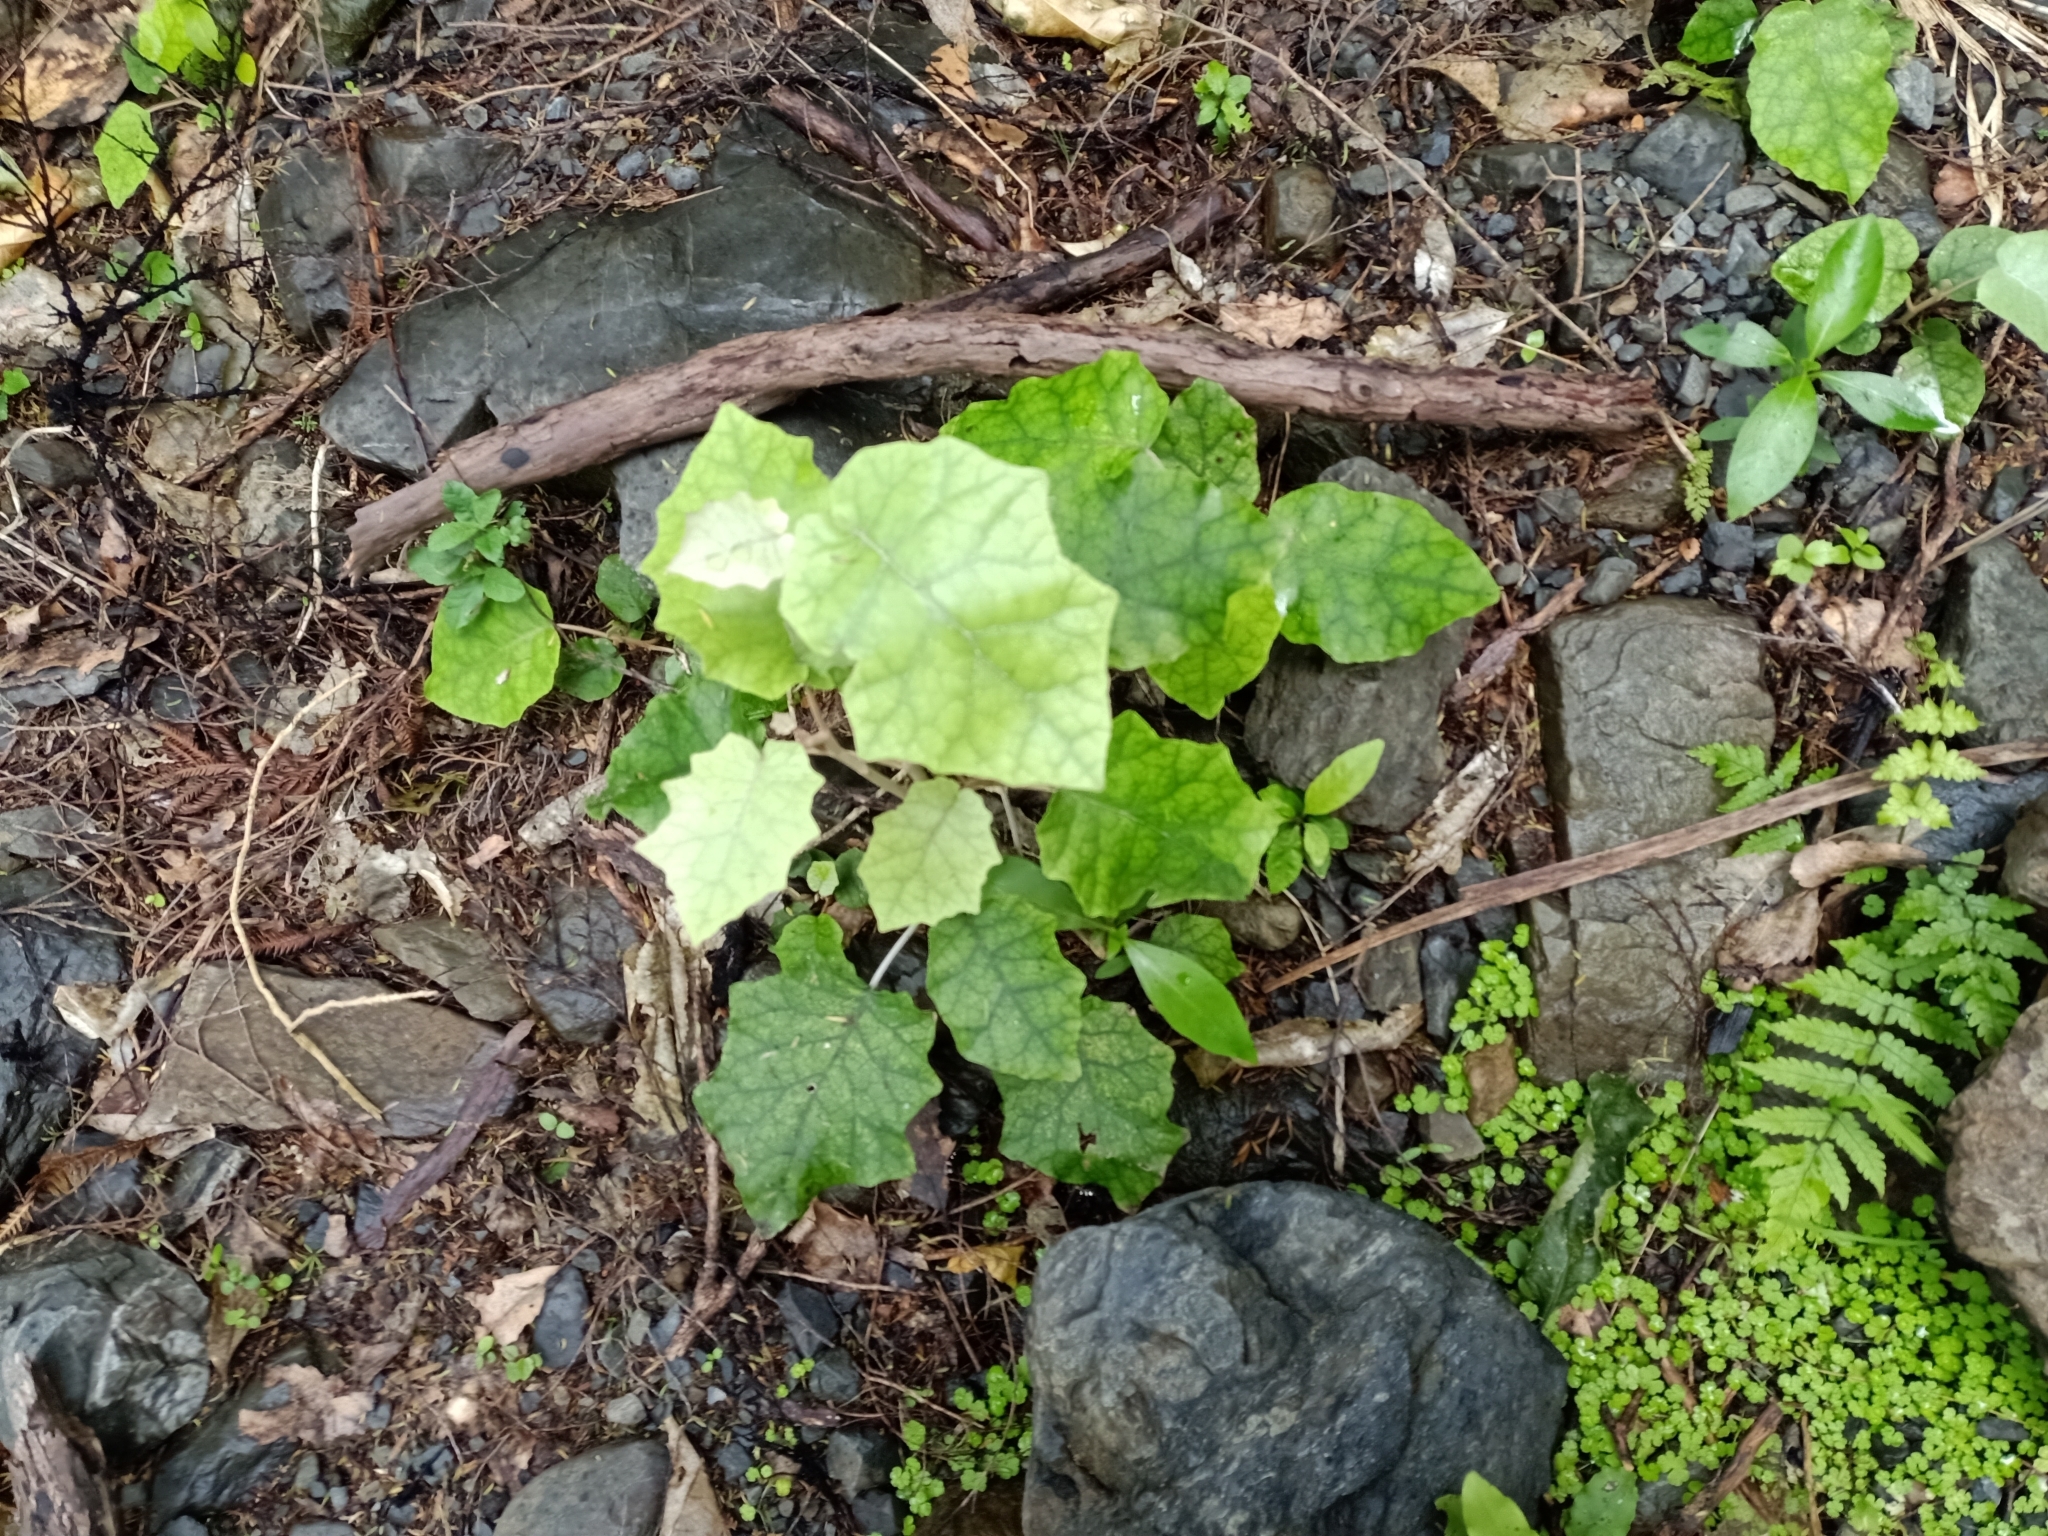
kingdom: Plantae
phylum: Tracheophyta
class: Magnoliopsida
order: Asterales
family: Asteraceae
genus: Brachyglottis
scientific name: Brachyglottis repanda
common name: Hedge ragwort
